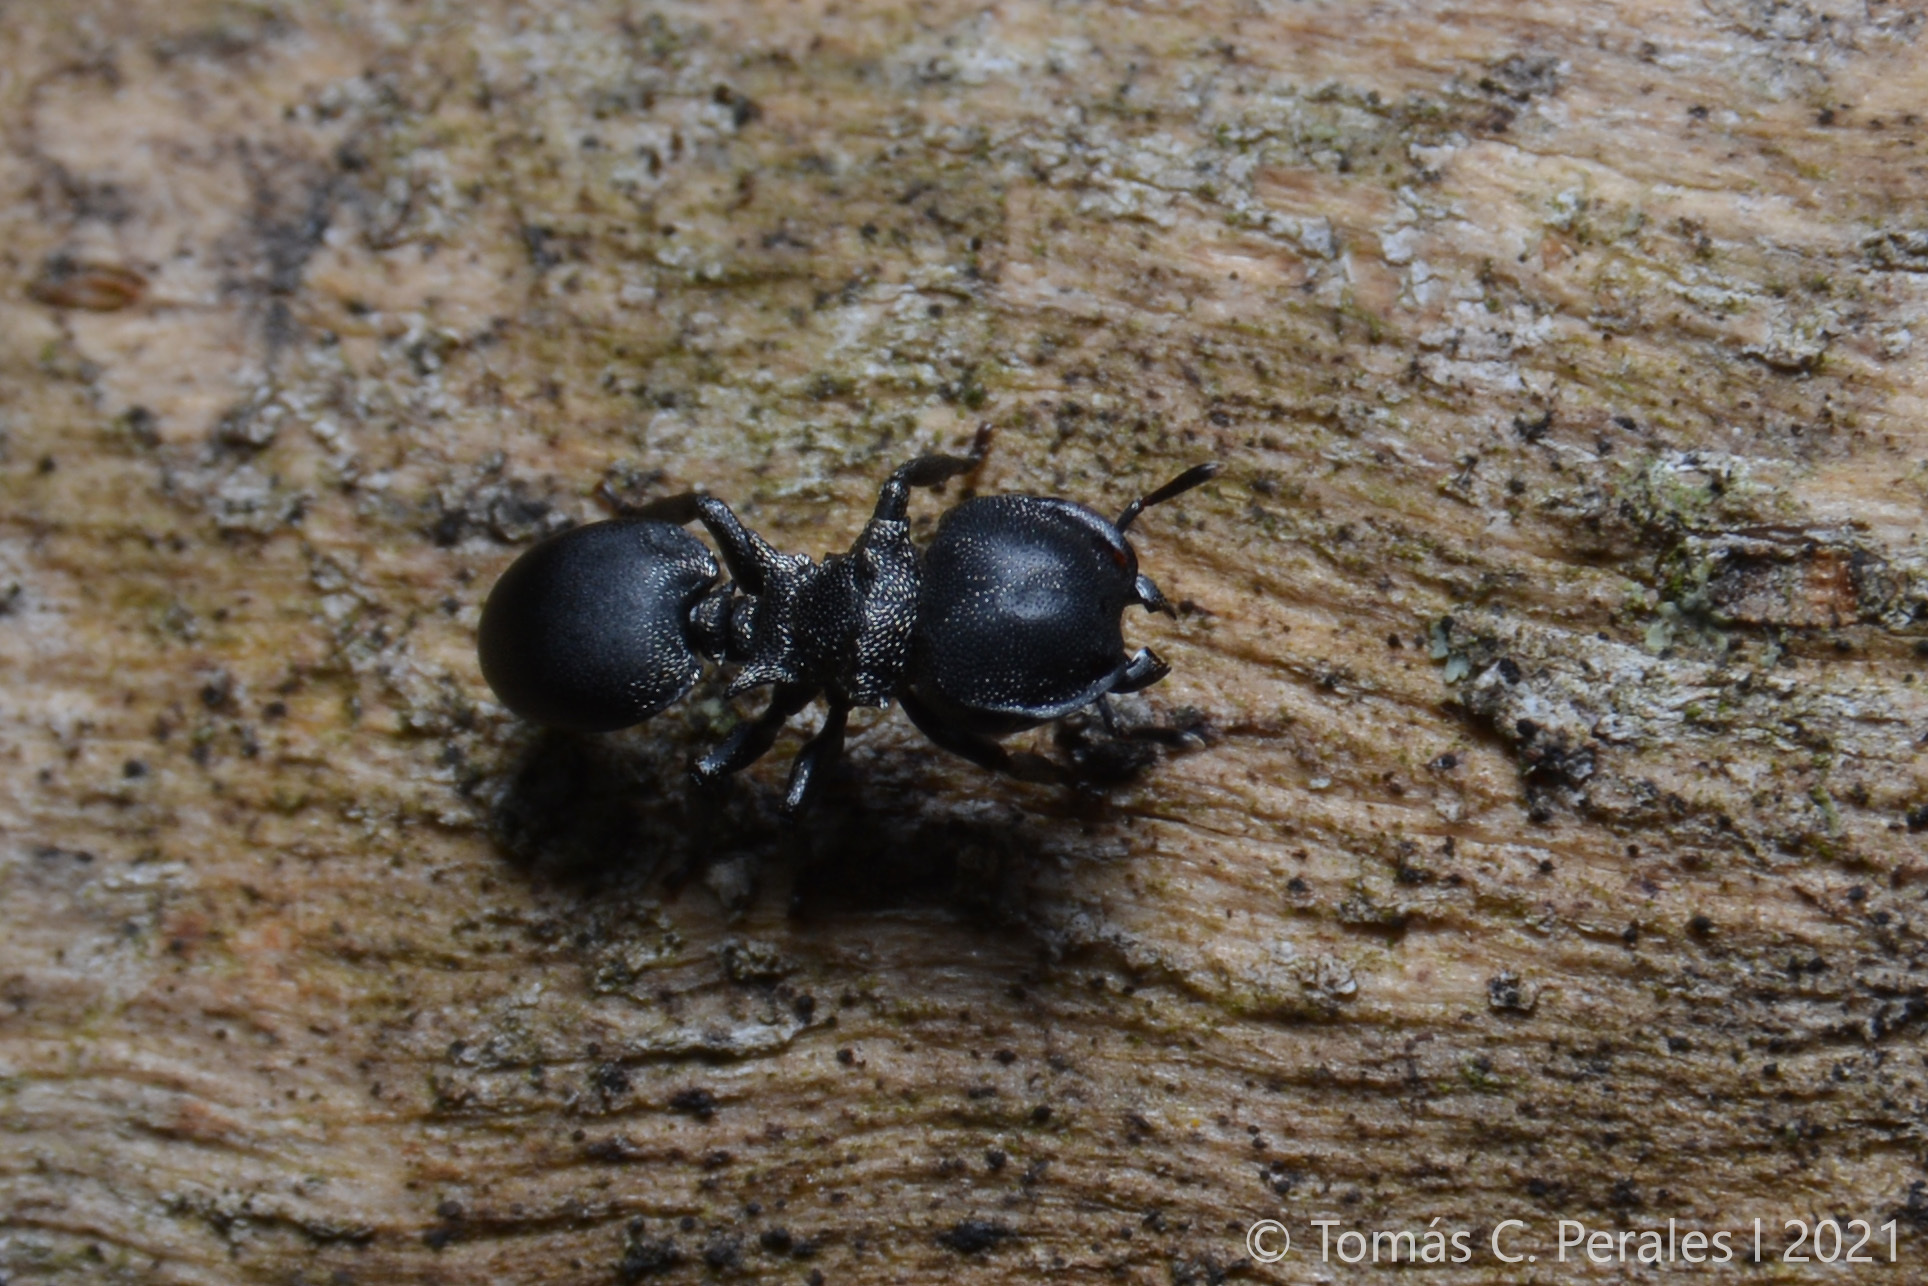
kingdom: Animalia
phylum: Arthropoda
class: Insecta
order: Hymenoptera
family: Formicidae
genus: Cephalotes
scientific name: Cephalotes pusillus
